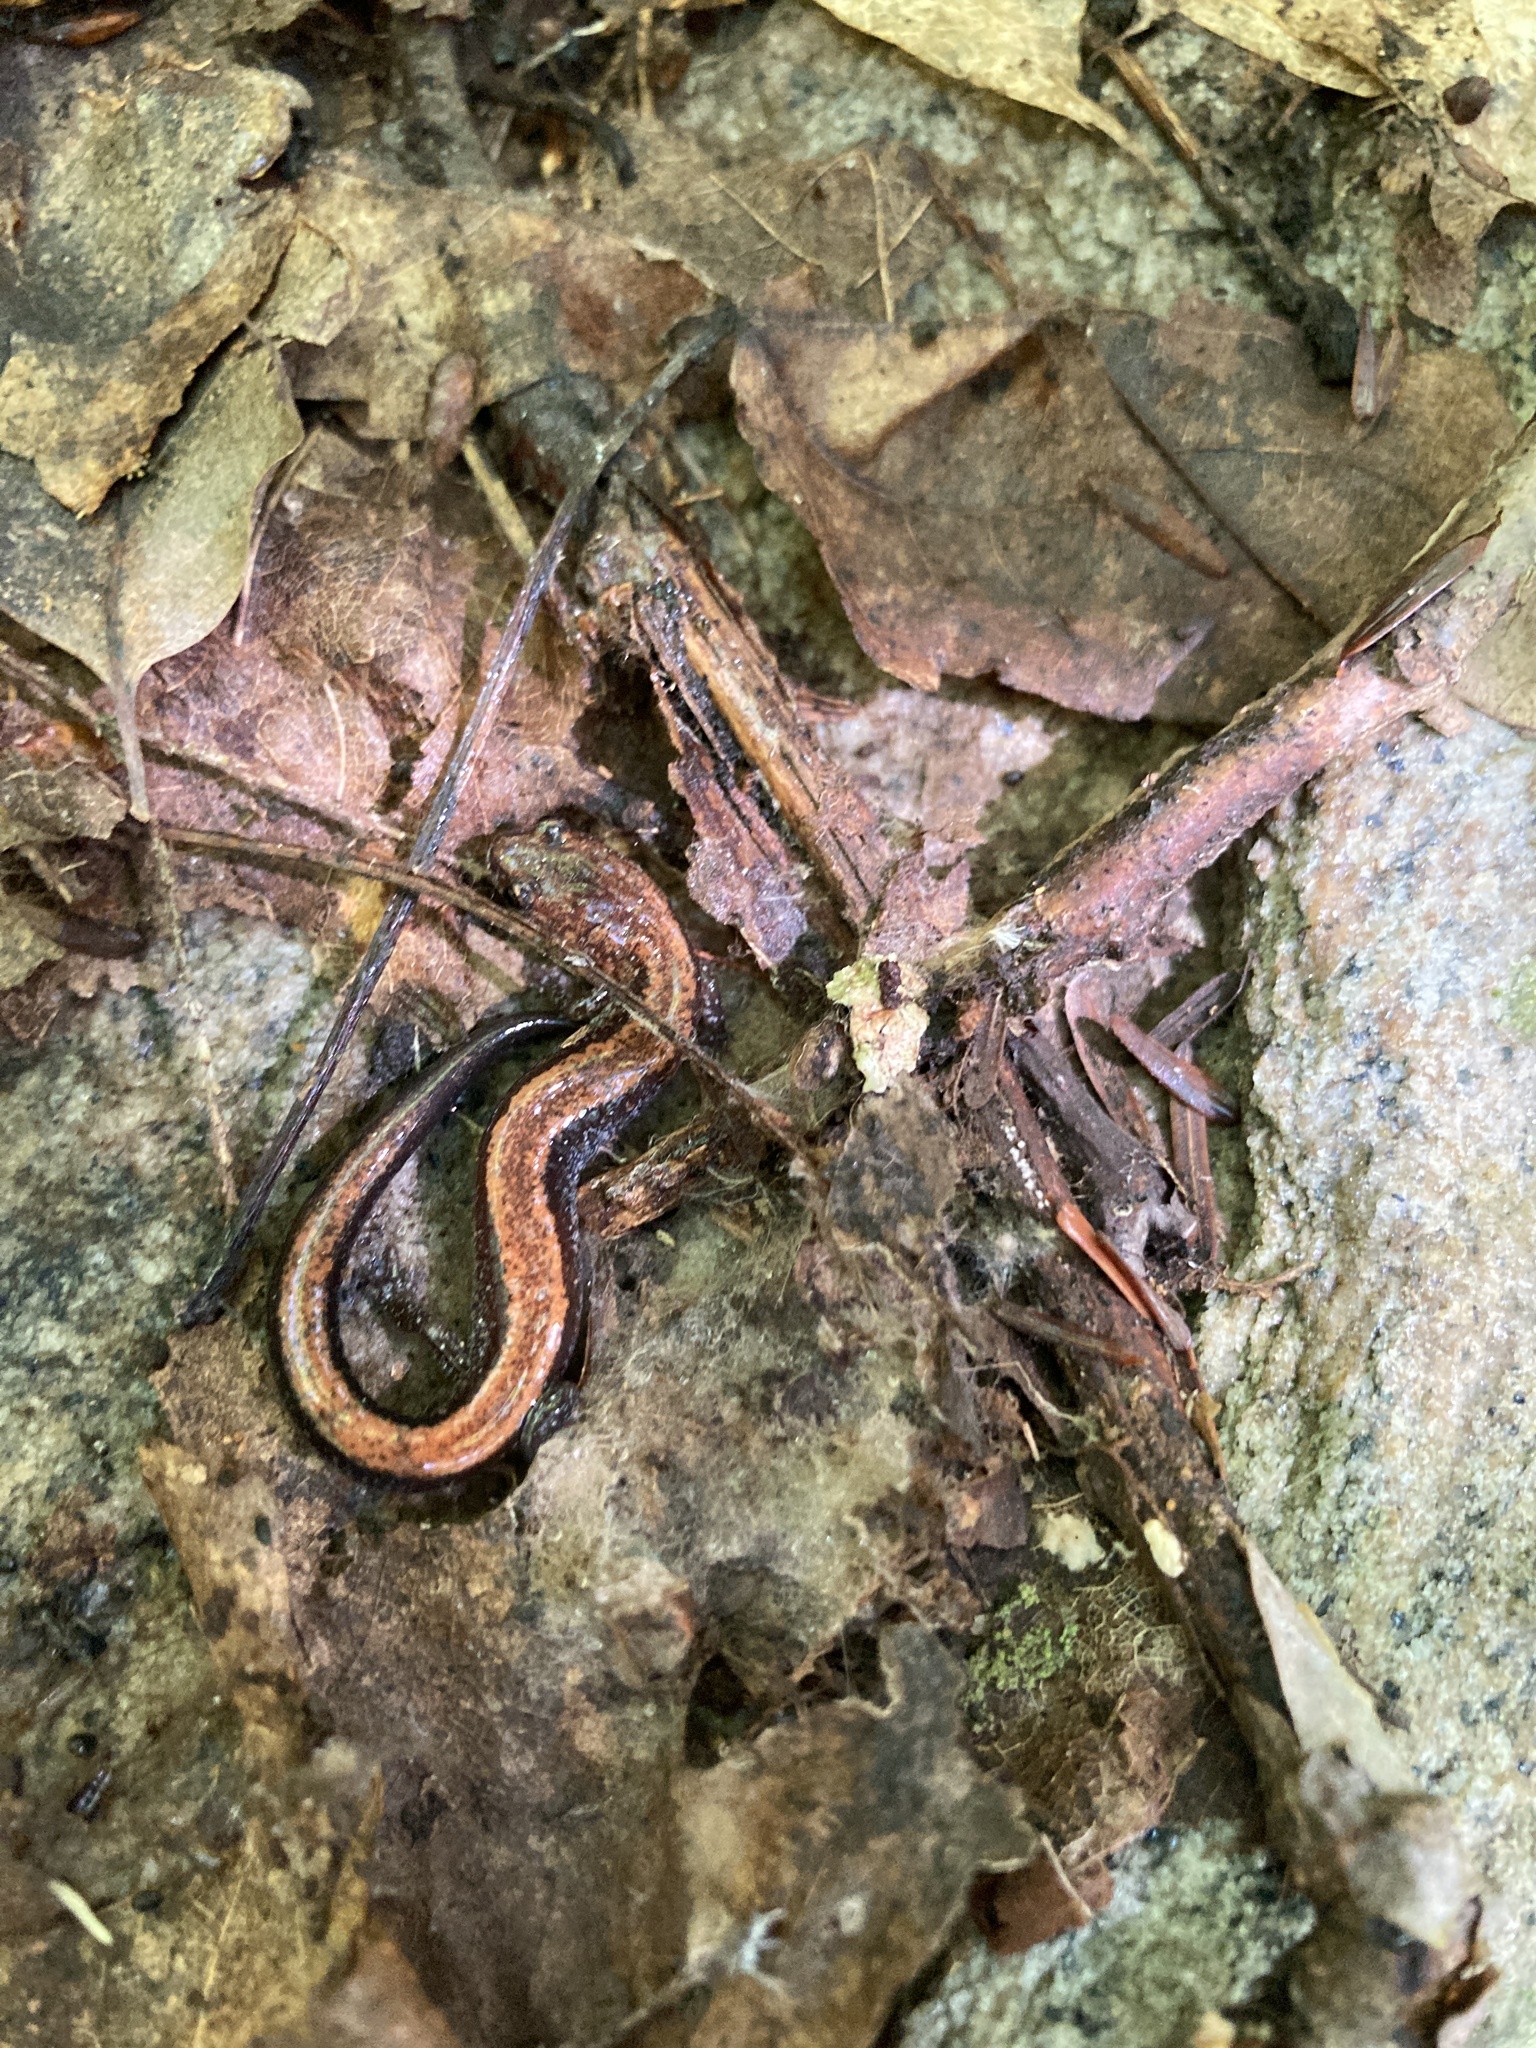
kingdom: Animalia
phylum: Chordata
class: Amphibia
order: Caudata
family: Plethodontidae
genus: Plethodon
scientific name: Plethodon cinereus
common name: Redback salamander
